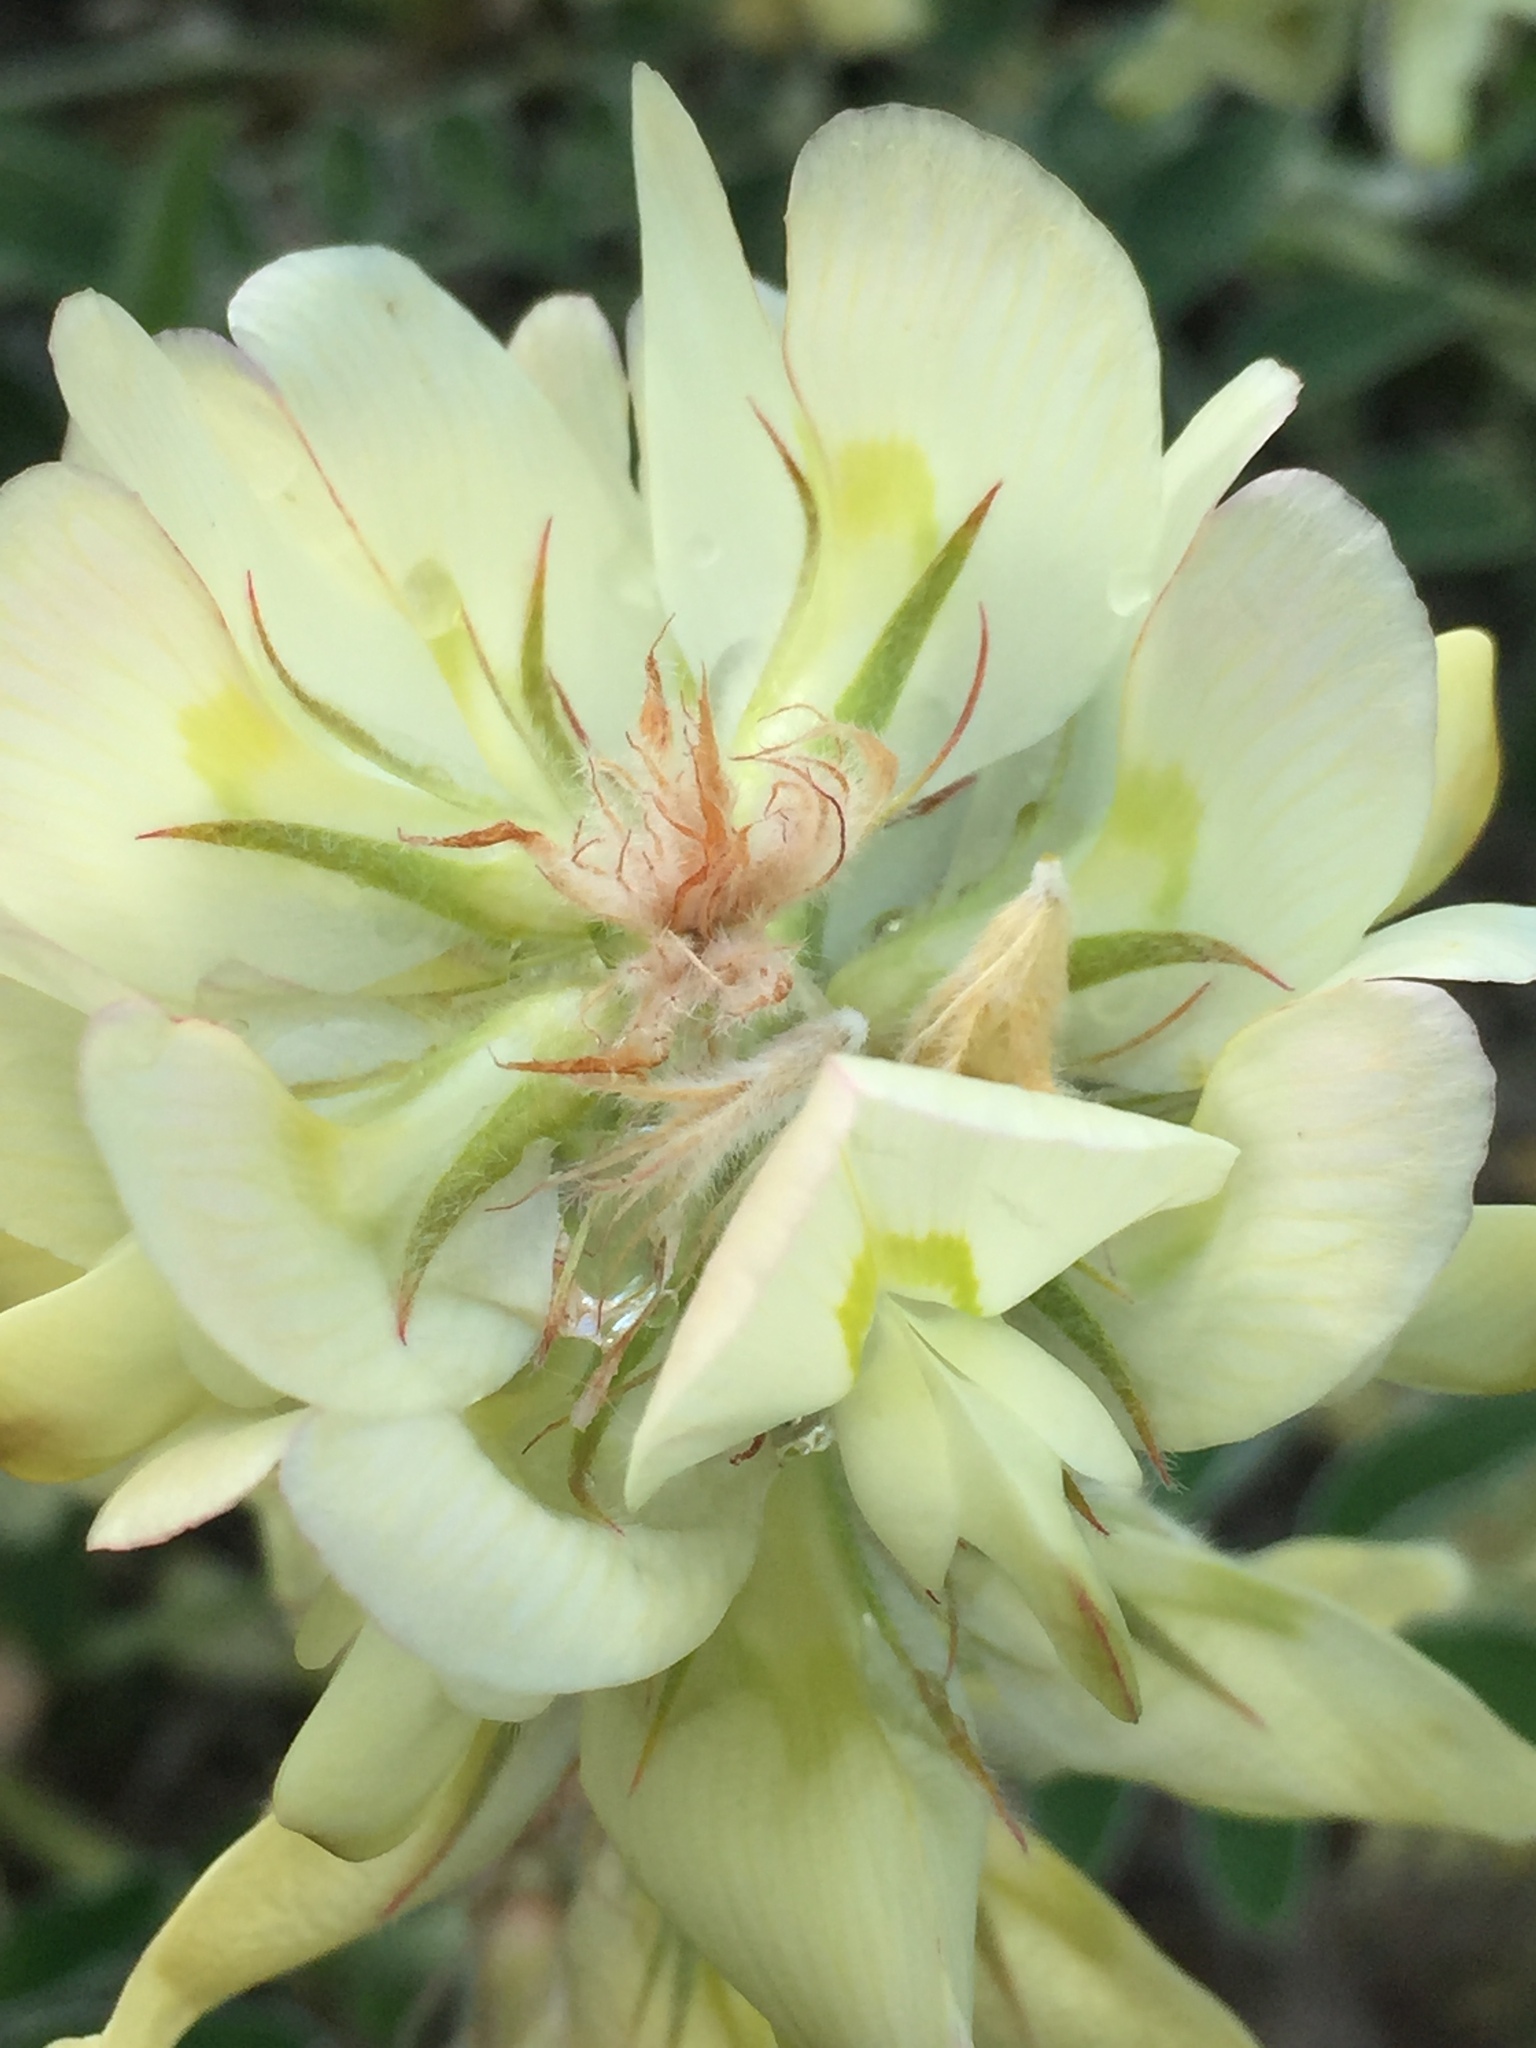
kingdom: Plantae
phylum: Tracheophyta
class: Magnoliopsida
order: Fabales
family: Fabaceae
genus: Hedysarum
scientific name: Hedysarum grandiflorum
